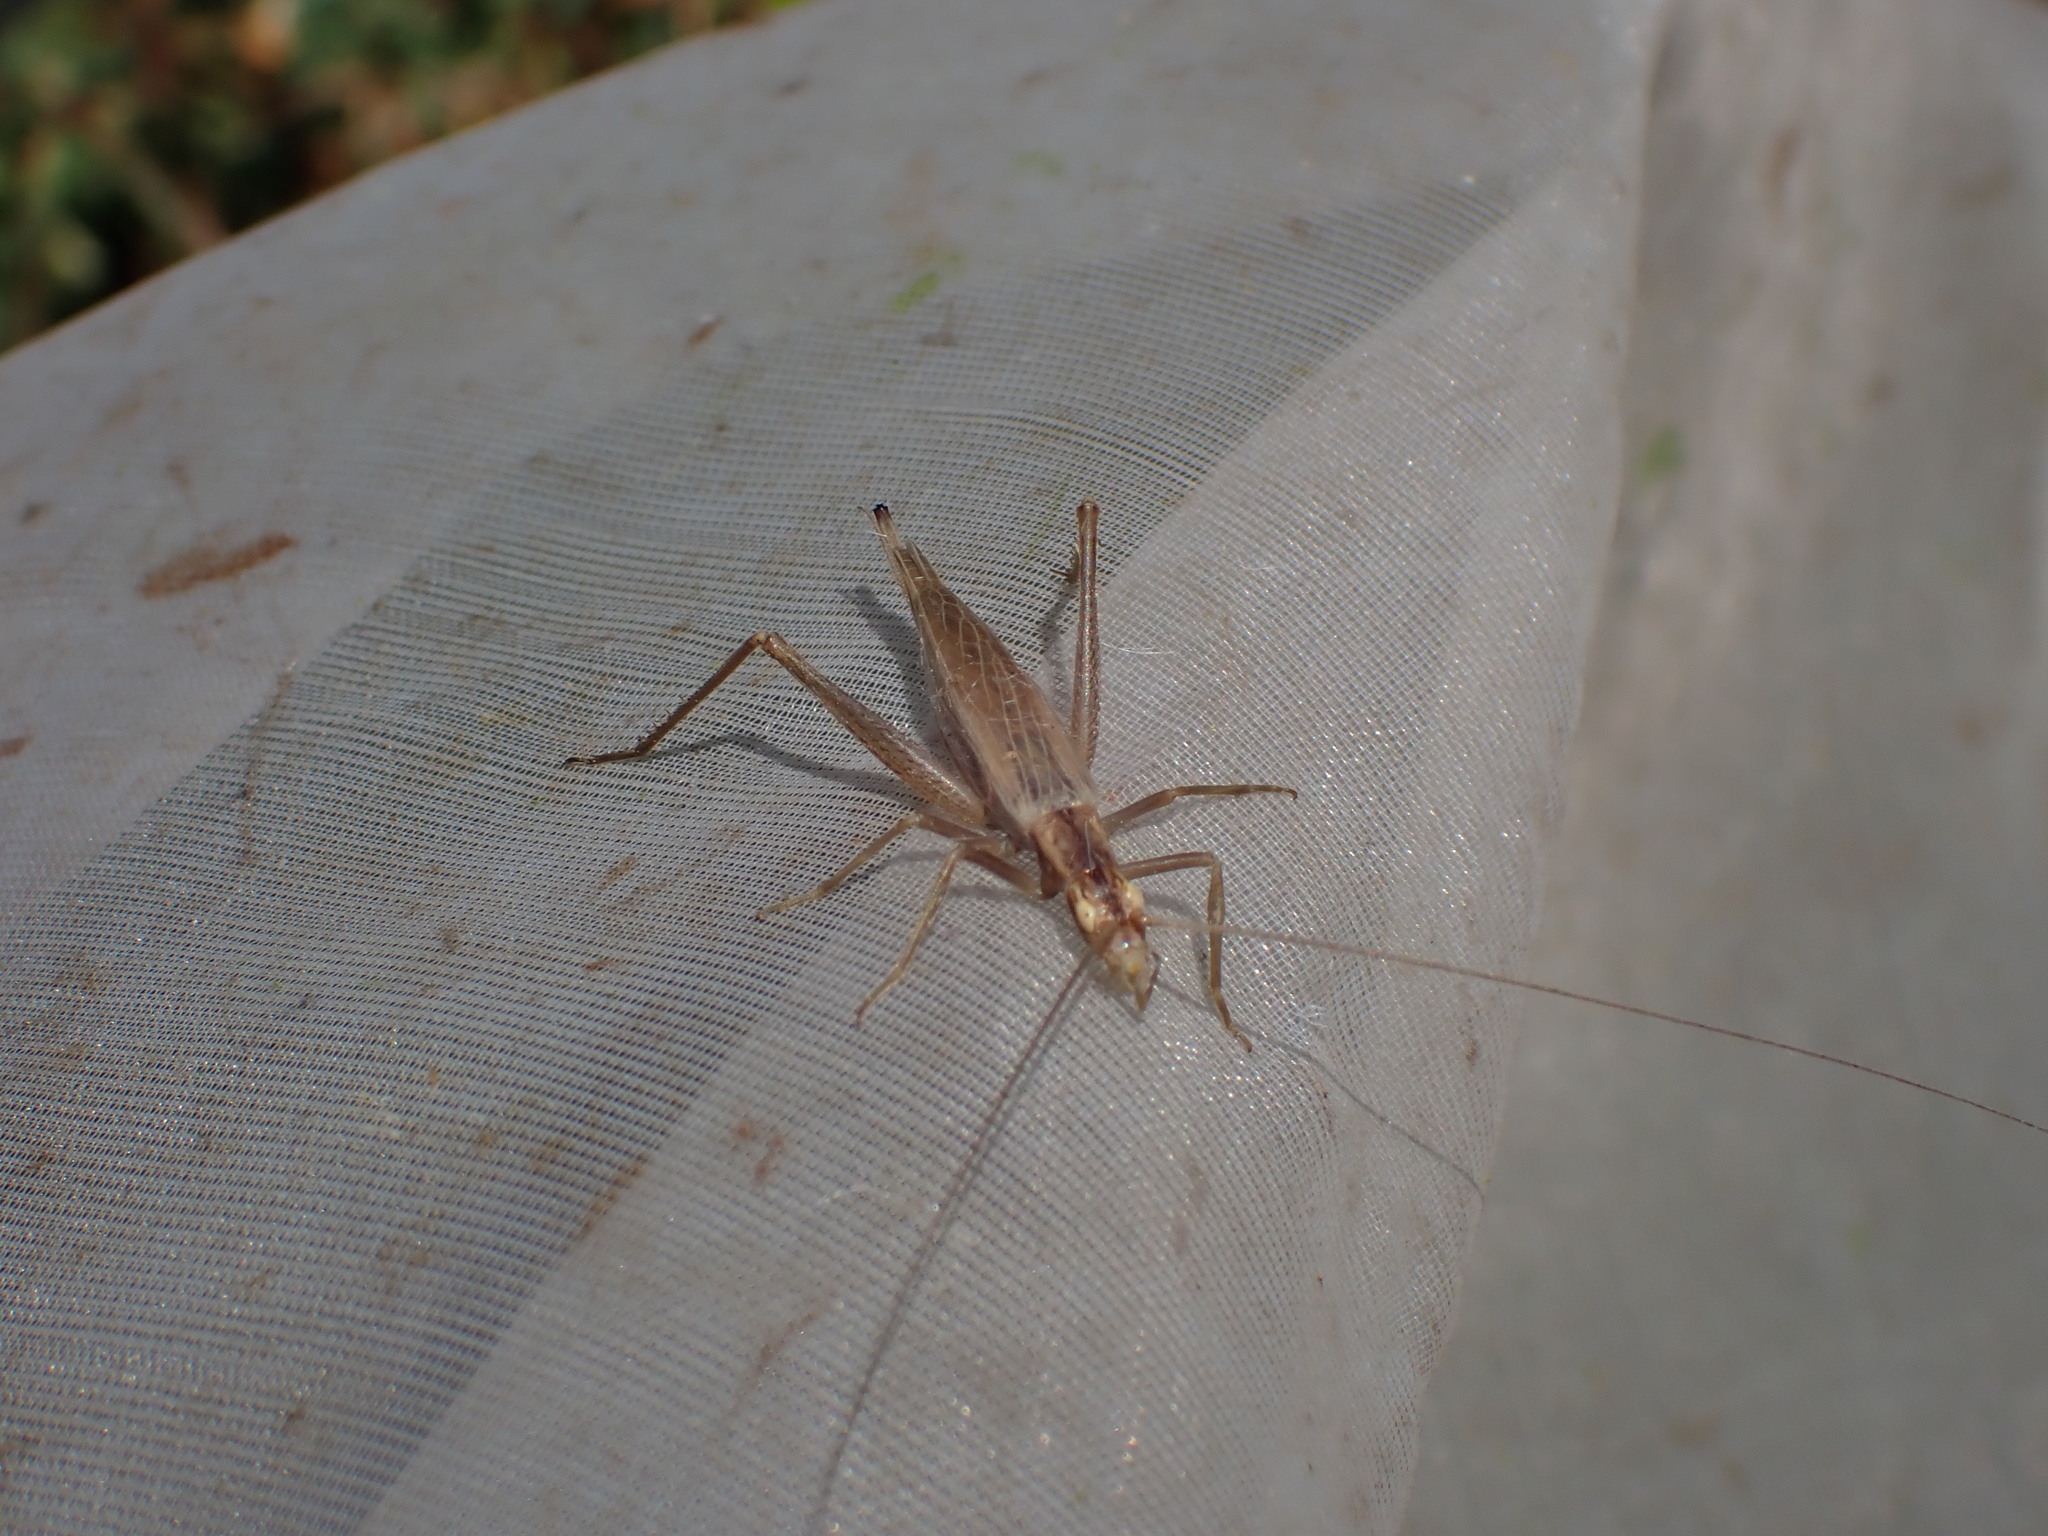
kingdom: Animalia
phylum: Arthropoda
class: Insecta
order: Orthoptera
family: Gryllidae
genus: Oecanthus
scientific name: Oecanthus pellucens
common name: Tree-cricket
